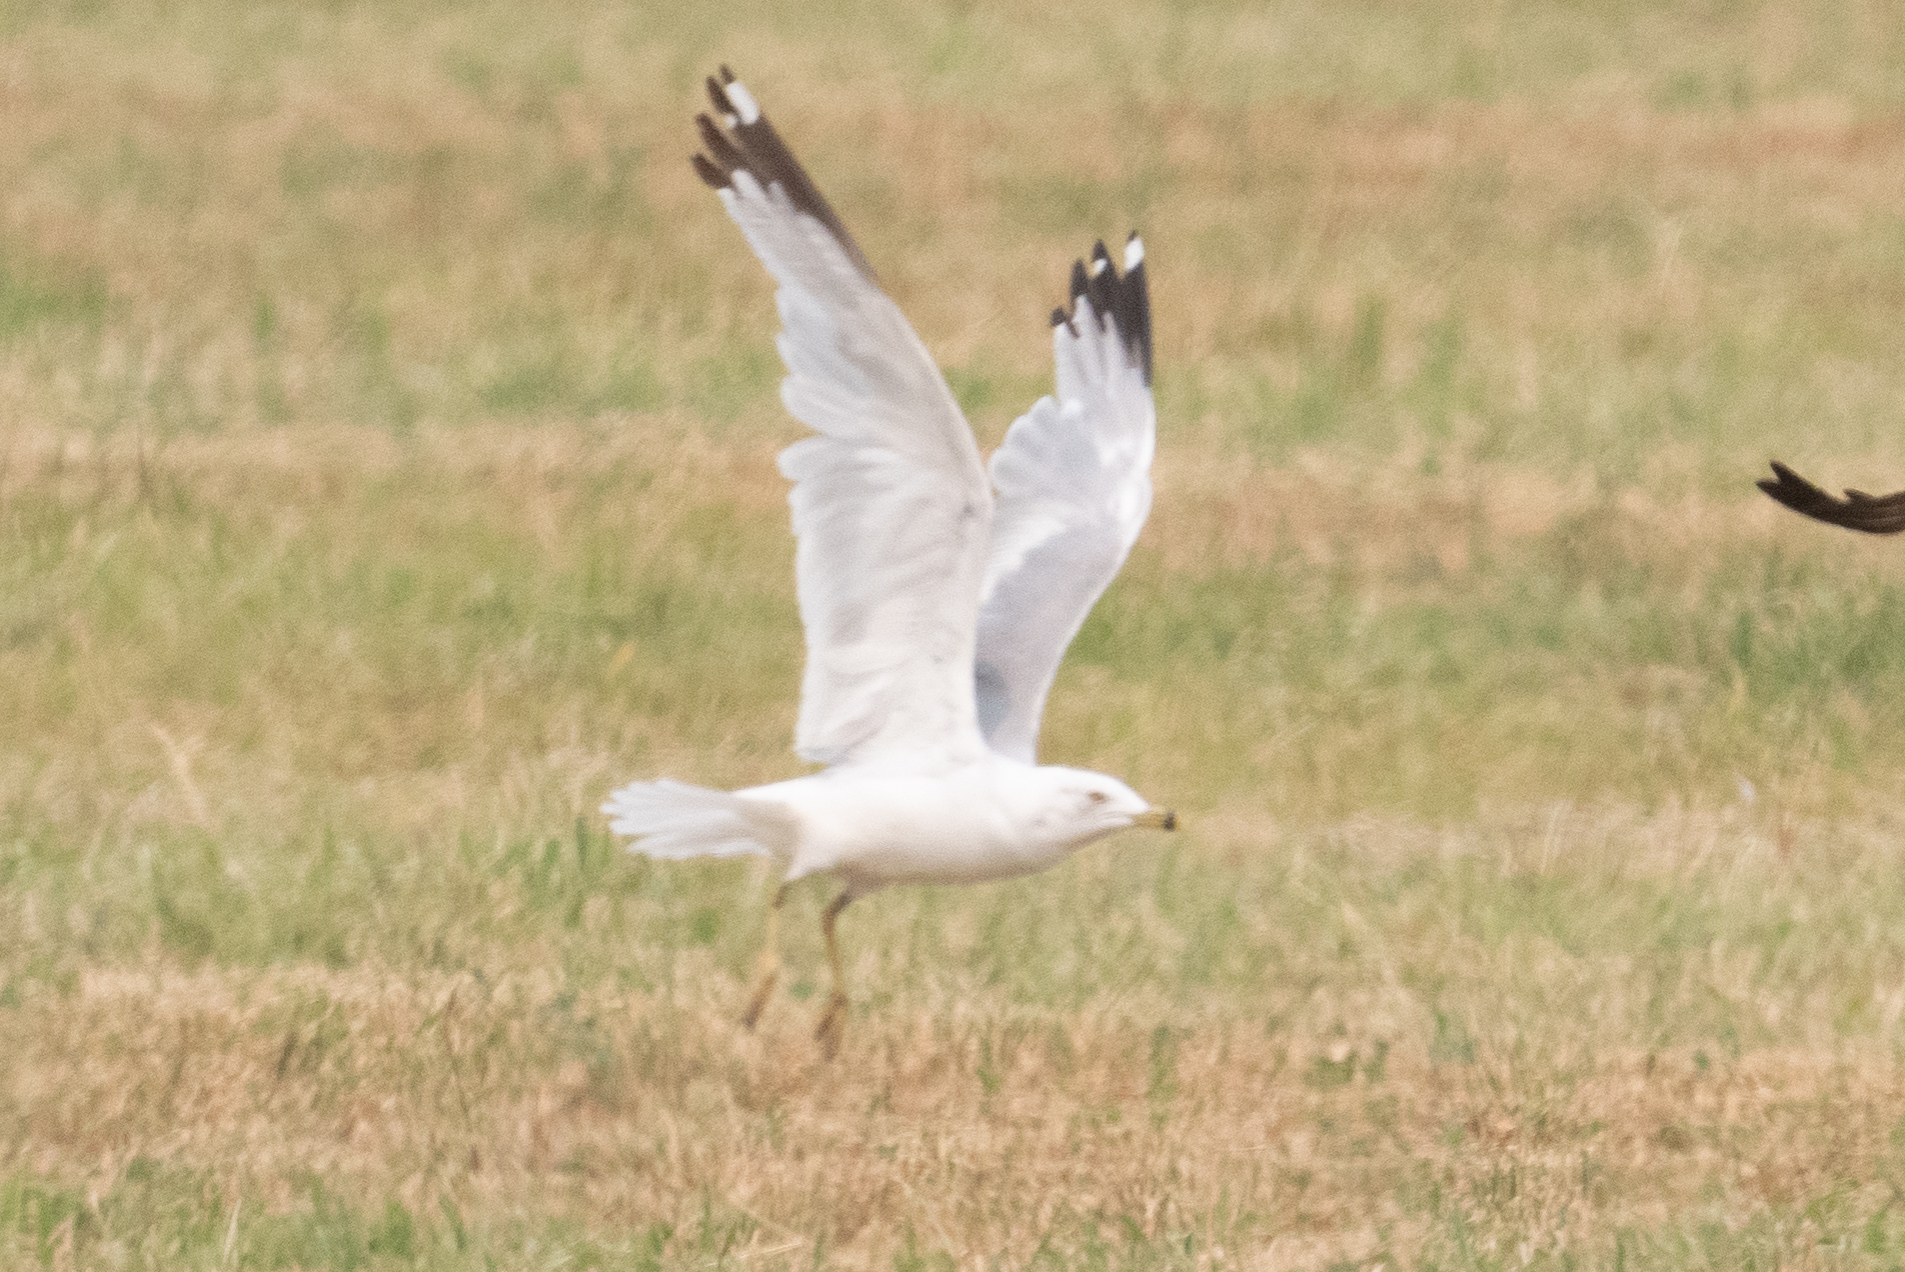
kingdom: Animalia
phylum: Chordata
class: Aves
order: Charadriiformes
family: Laridae
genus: Larus
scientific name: Larus delawarensis
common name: Ring-billed gull
